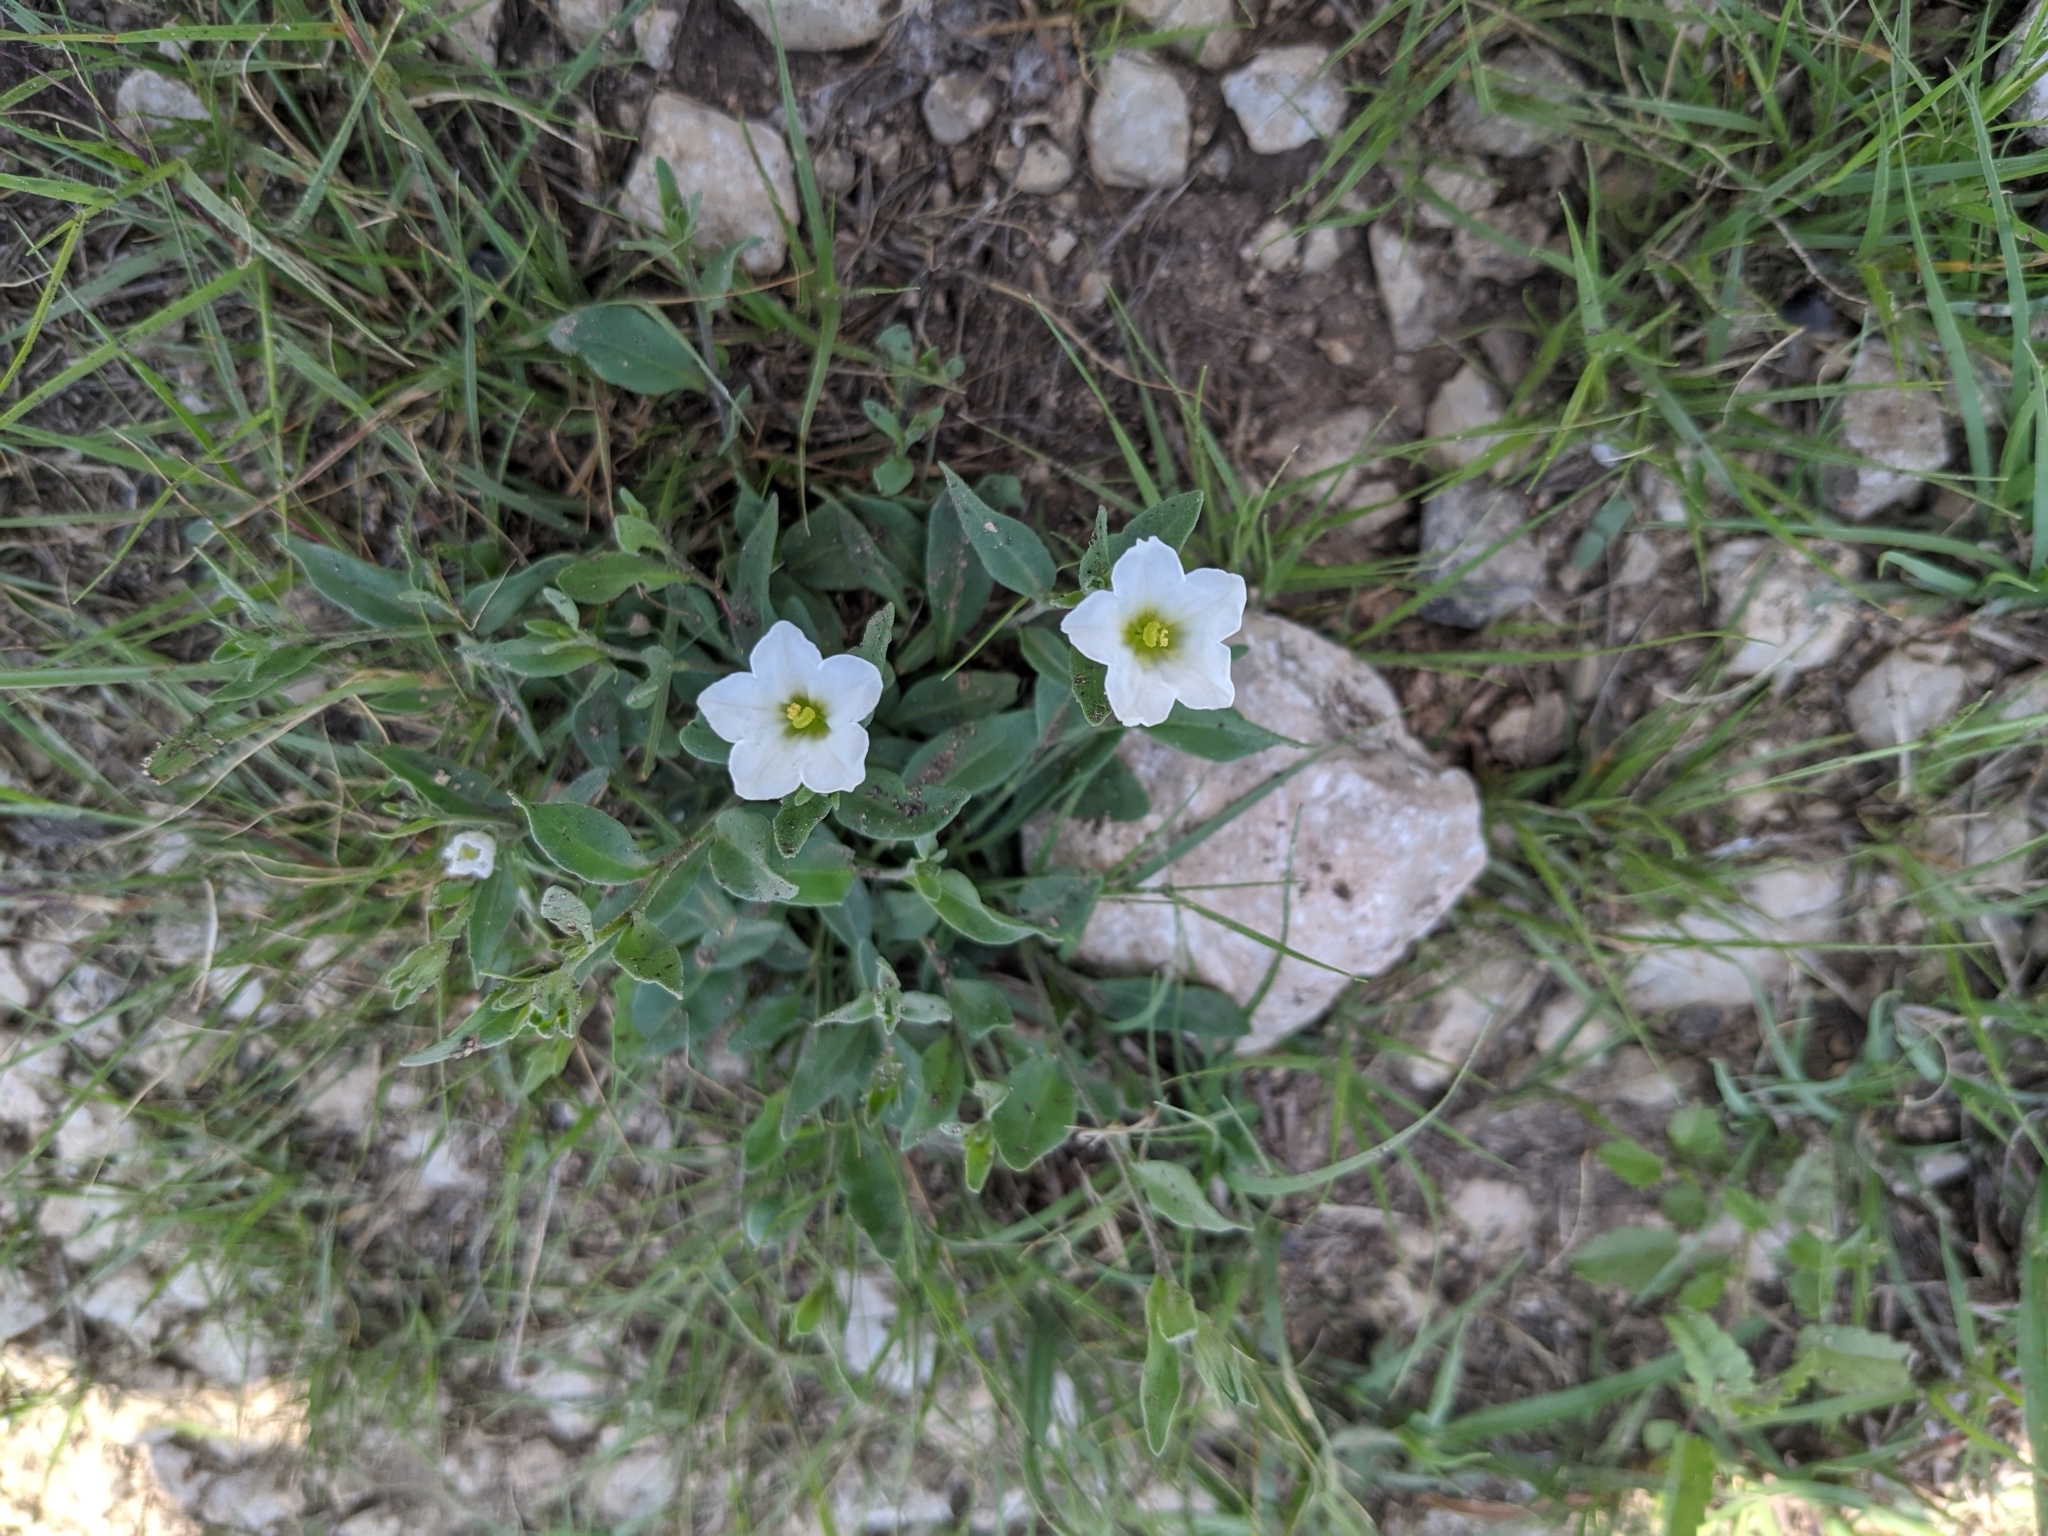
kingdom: Plantae
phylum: Tracheophyta
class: Magnoliopsida
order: Solanales
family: Solanaceae
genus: Salpiglossis
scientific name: Salpiglossis erecta
